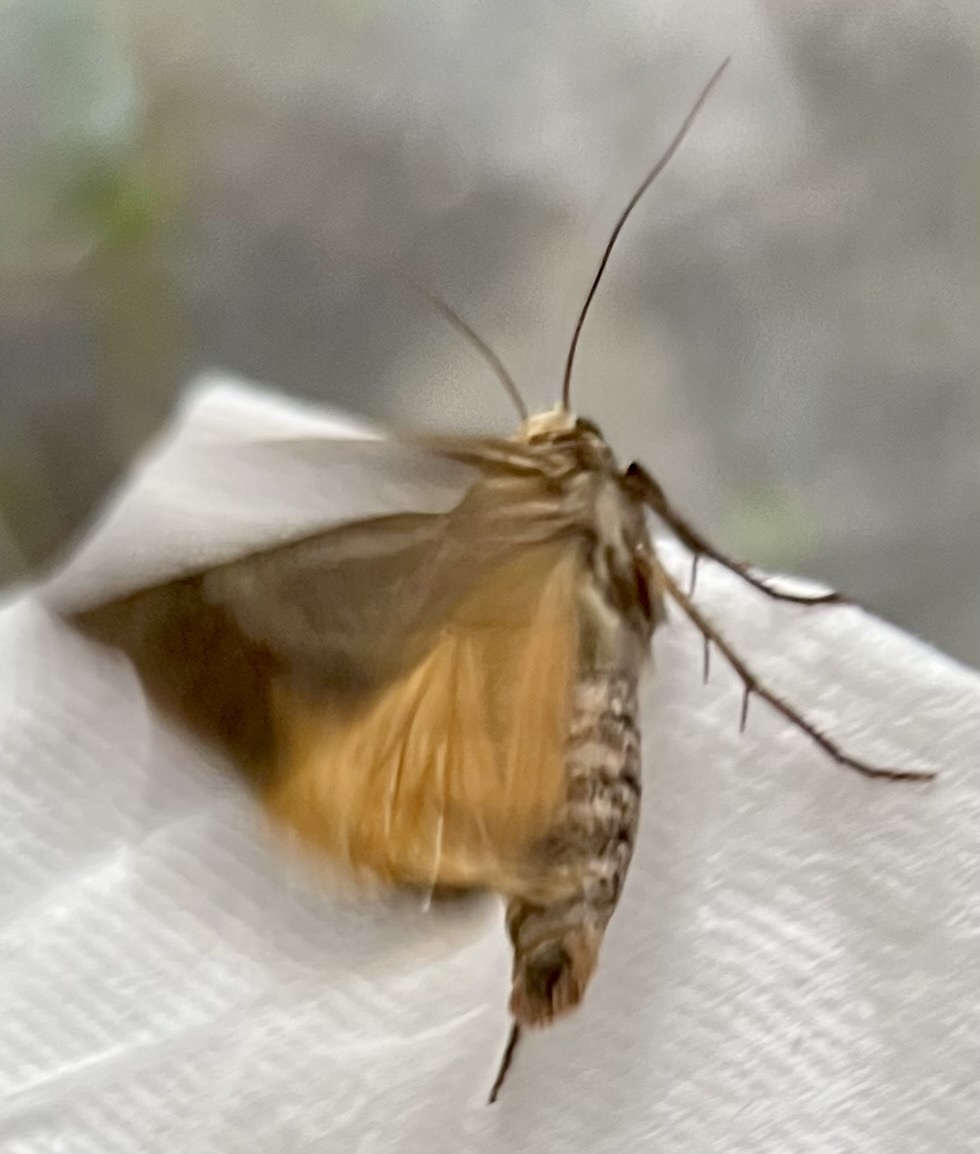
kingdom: Animalia
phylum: Arthropoda
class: Insecta
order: Lepidoptera
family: Noctuidae
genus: Noctua
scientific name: Noctua pronuba
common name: Large yellow underwing
